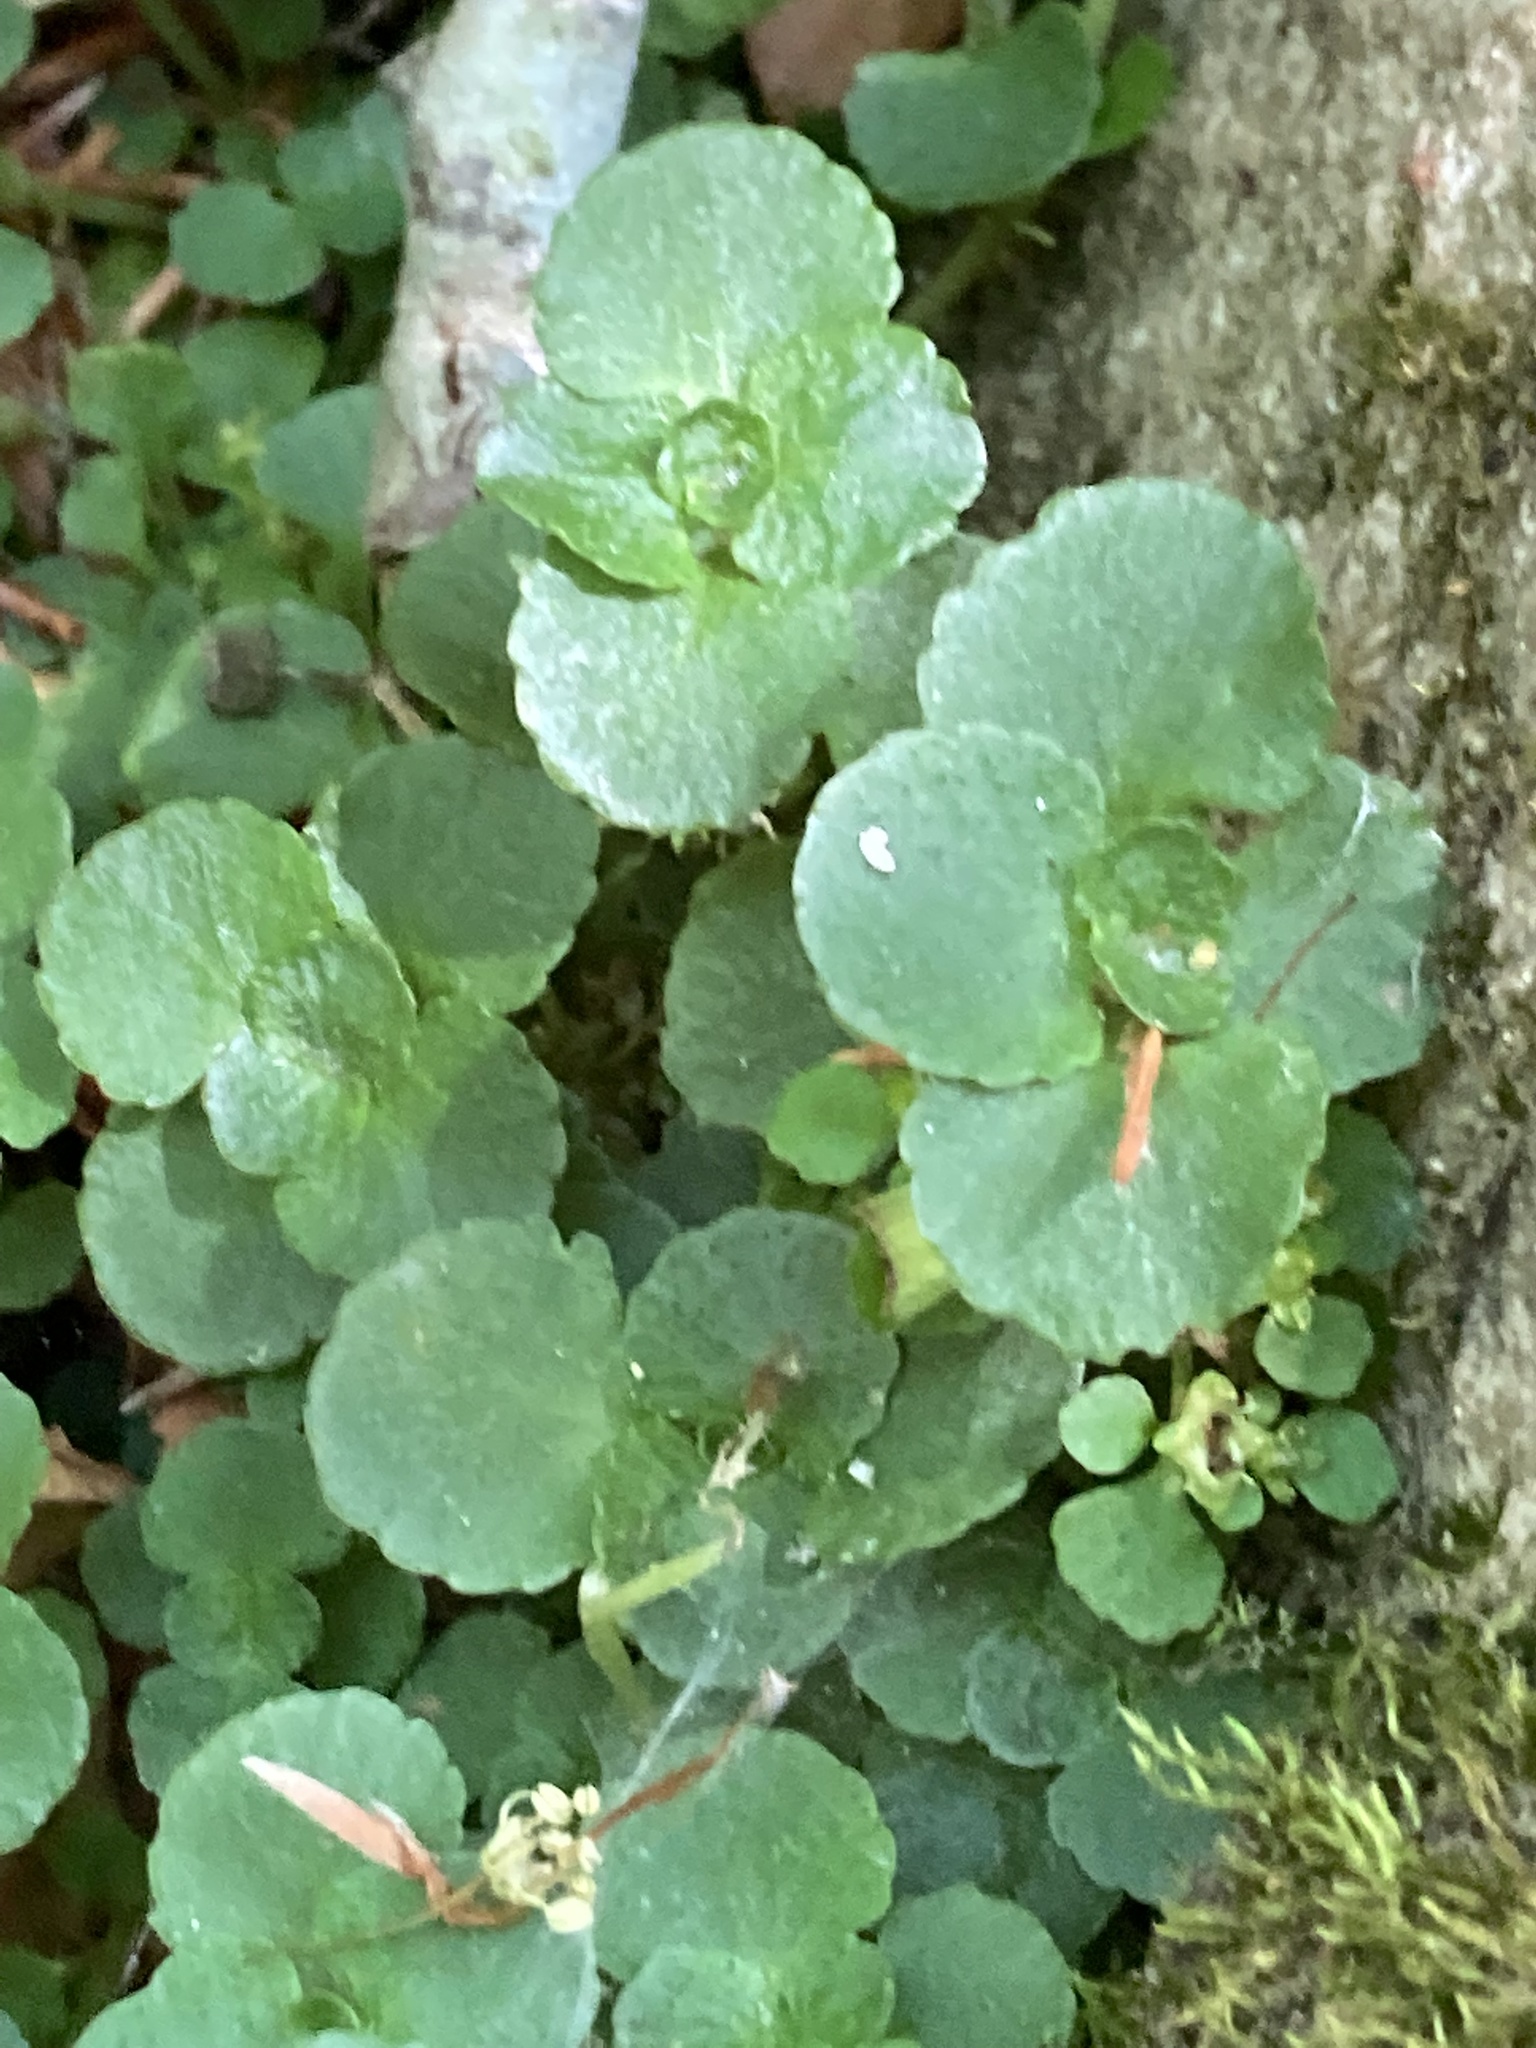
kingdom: Plantae
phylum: Tracheophyta
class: Magnoliopsida
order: Saxifragales
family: Saxifragaceae
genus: Chrysosplenium
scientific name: Chrysosplenium oppositifolium
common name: Opposite-leaved golden-saxifrage
